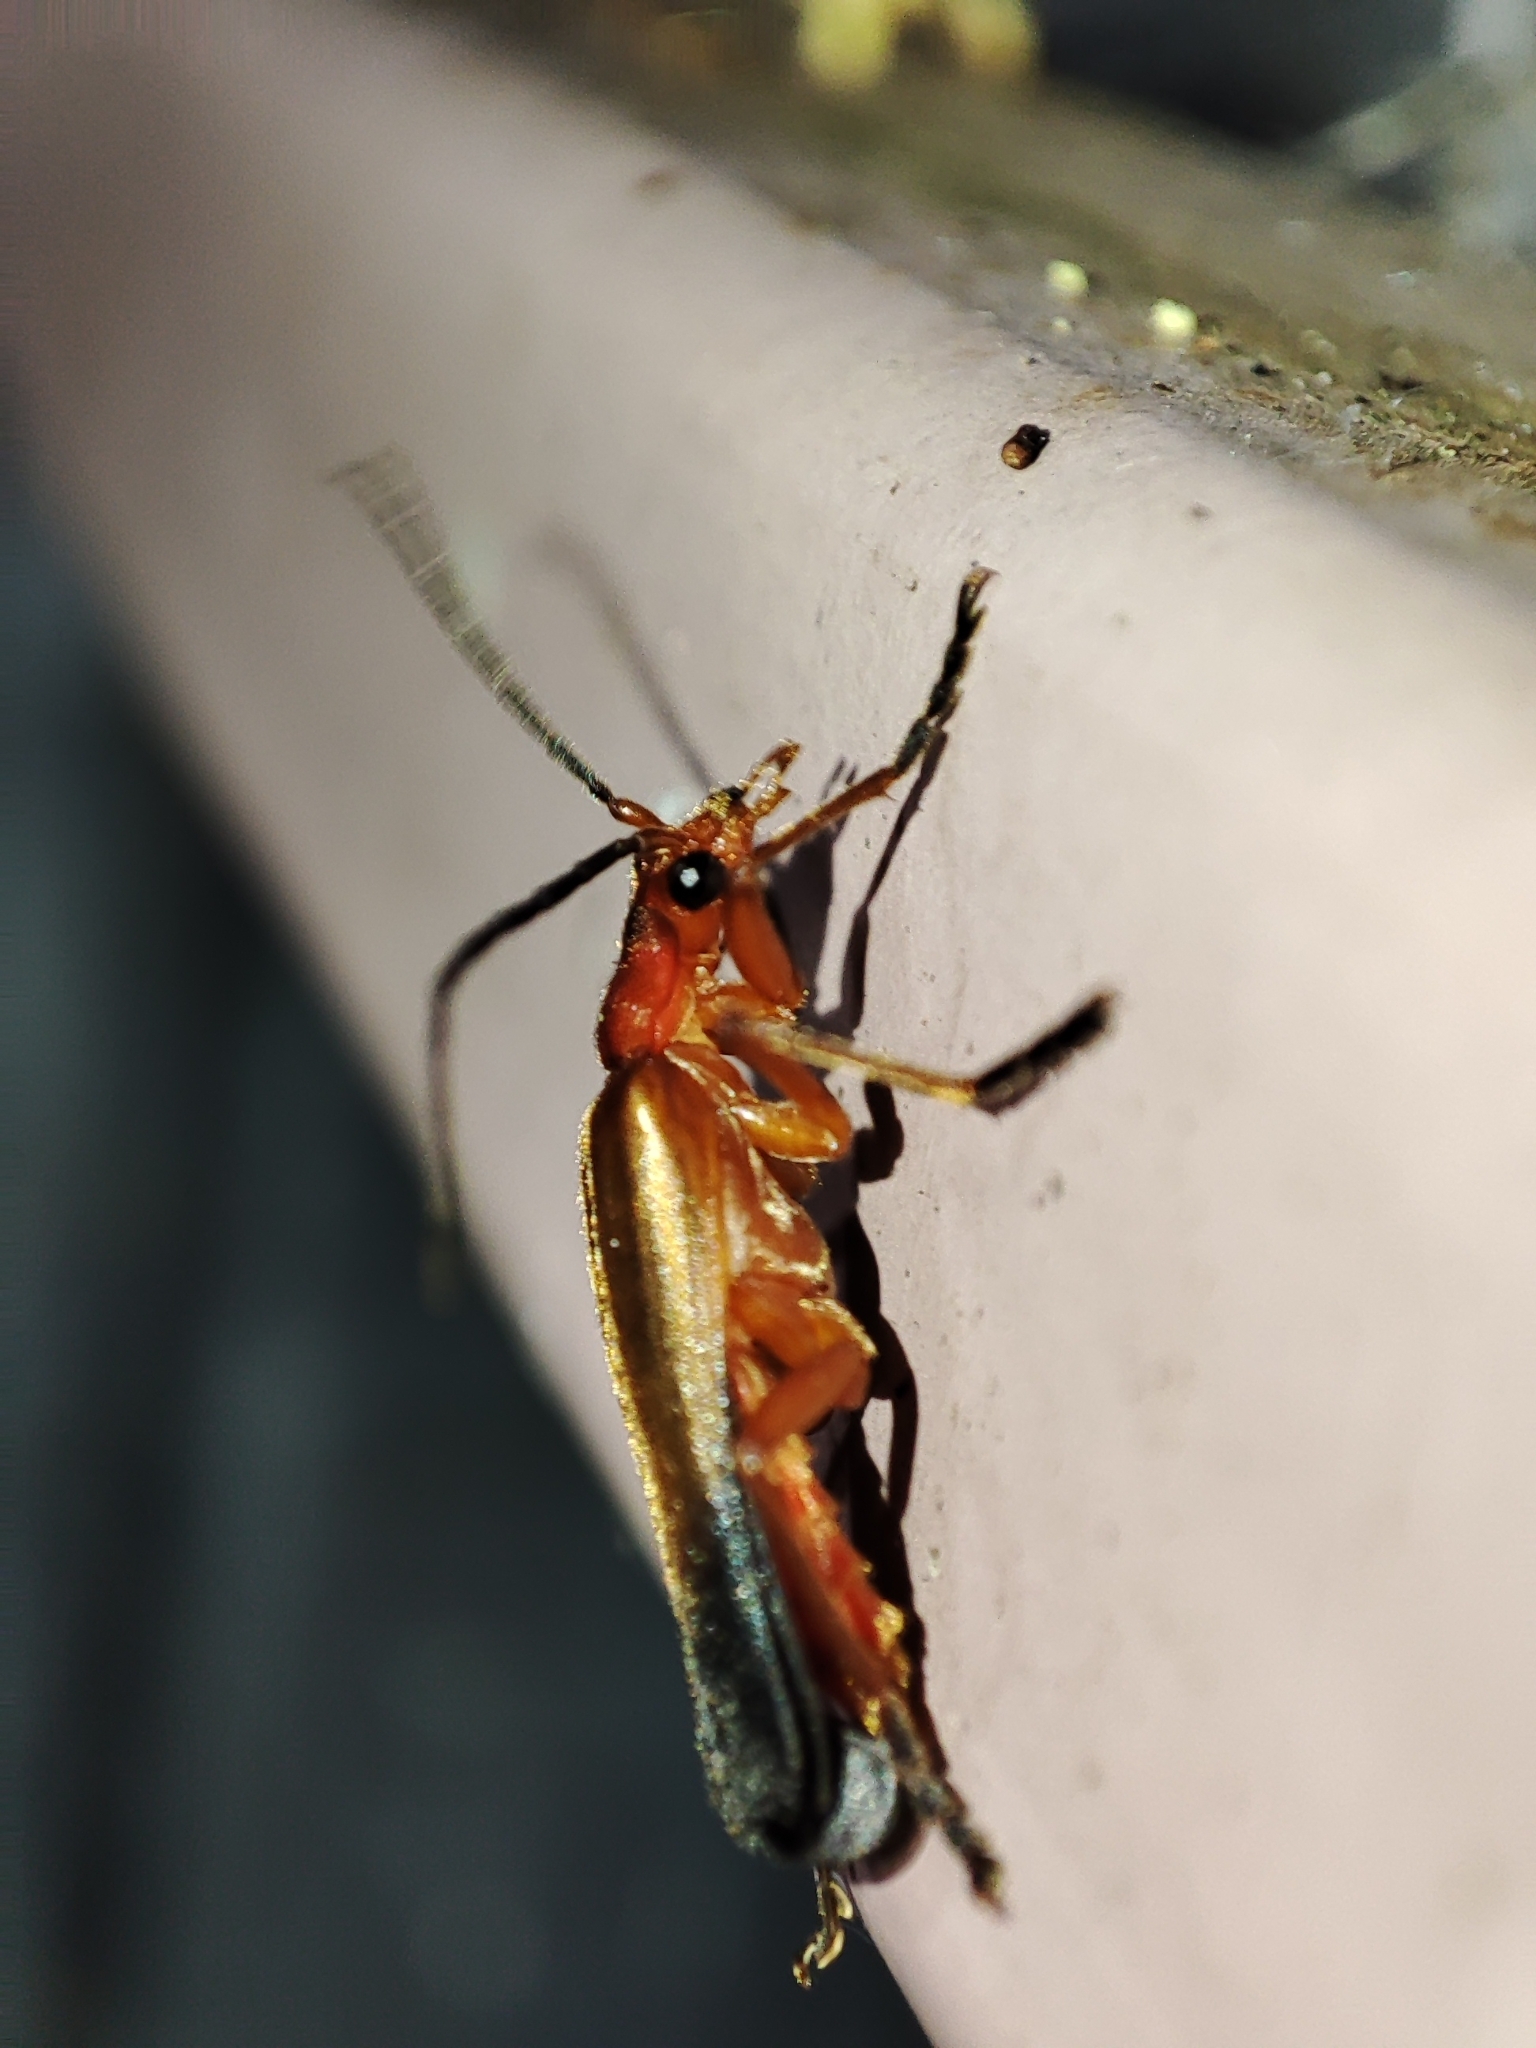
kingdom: Animalia
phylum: Arthropoda
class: Insecta
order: Coleoptera
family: Cantharidae
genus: Ancistronycha
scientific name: Ancistronycha erichsonii
